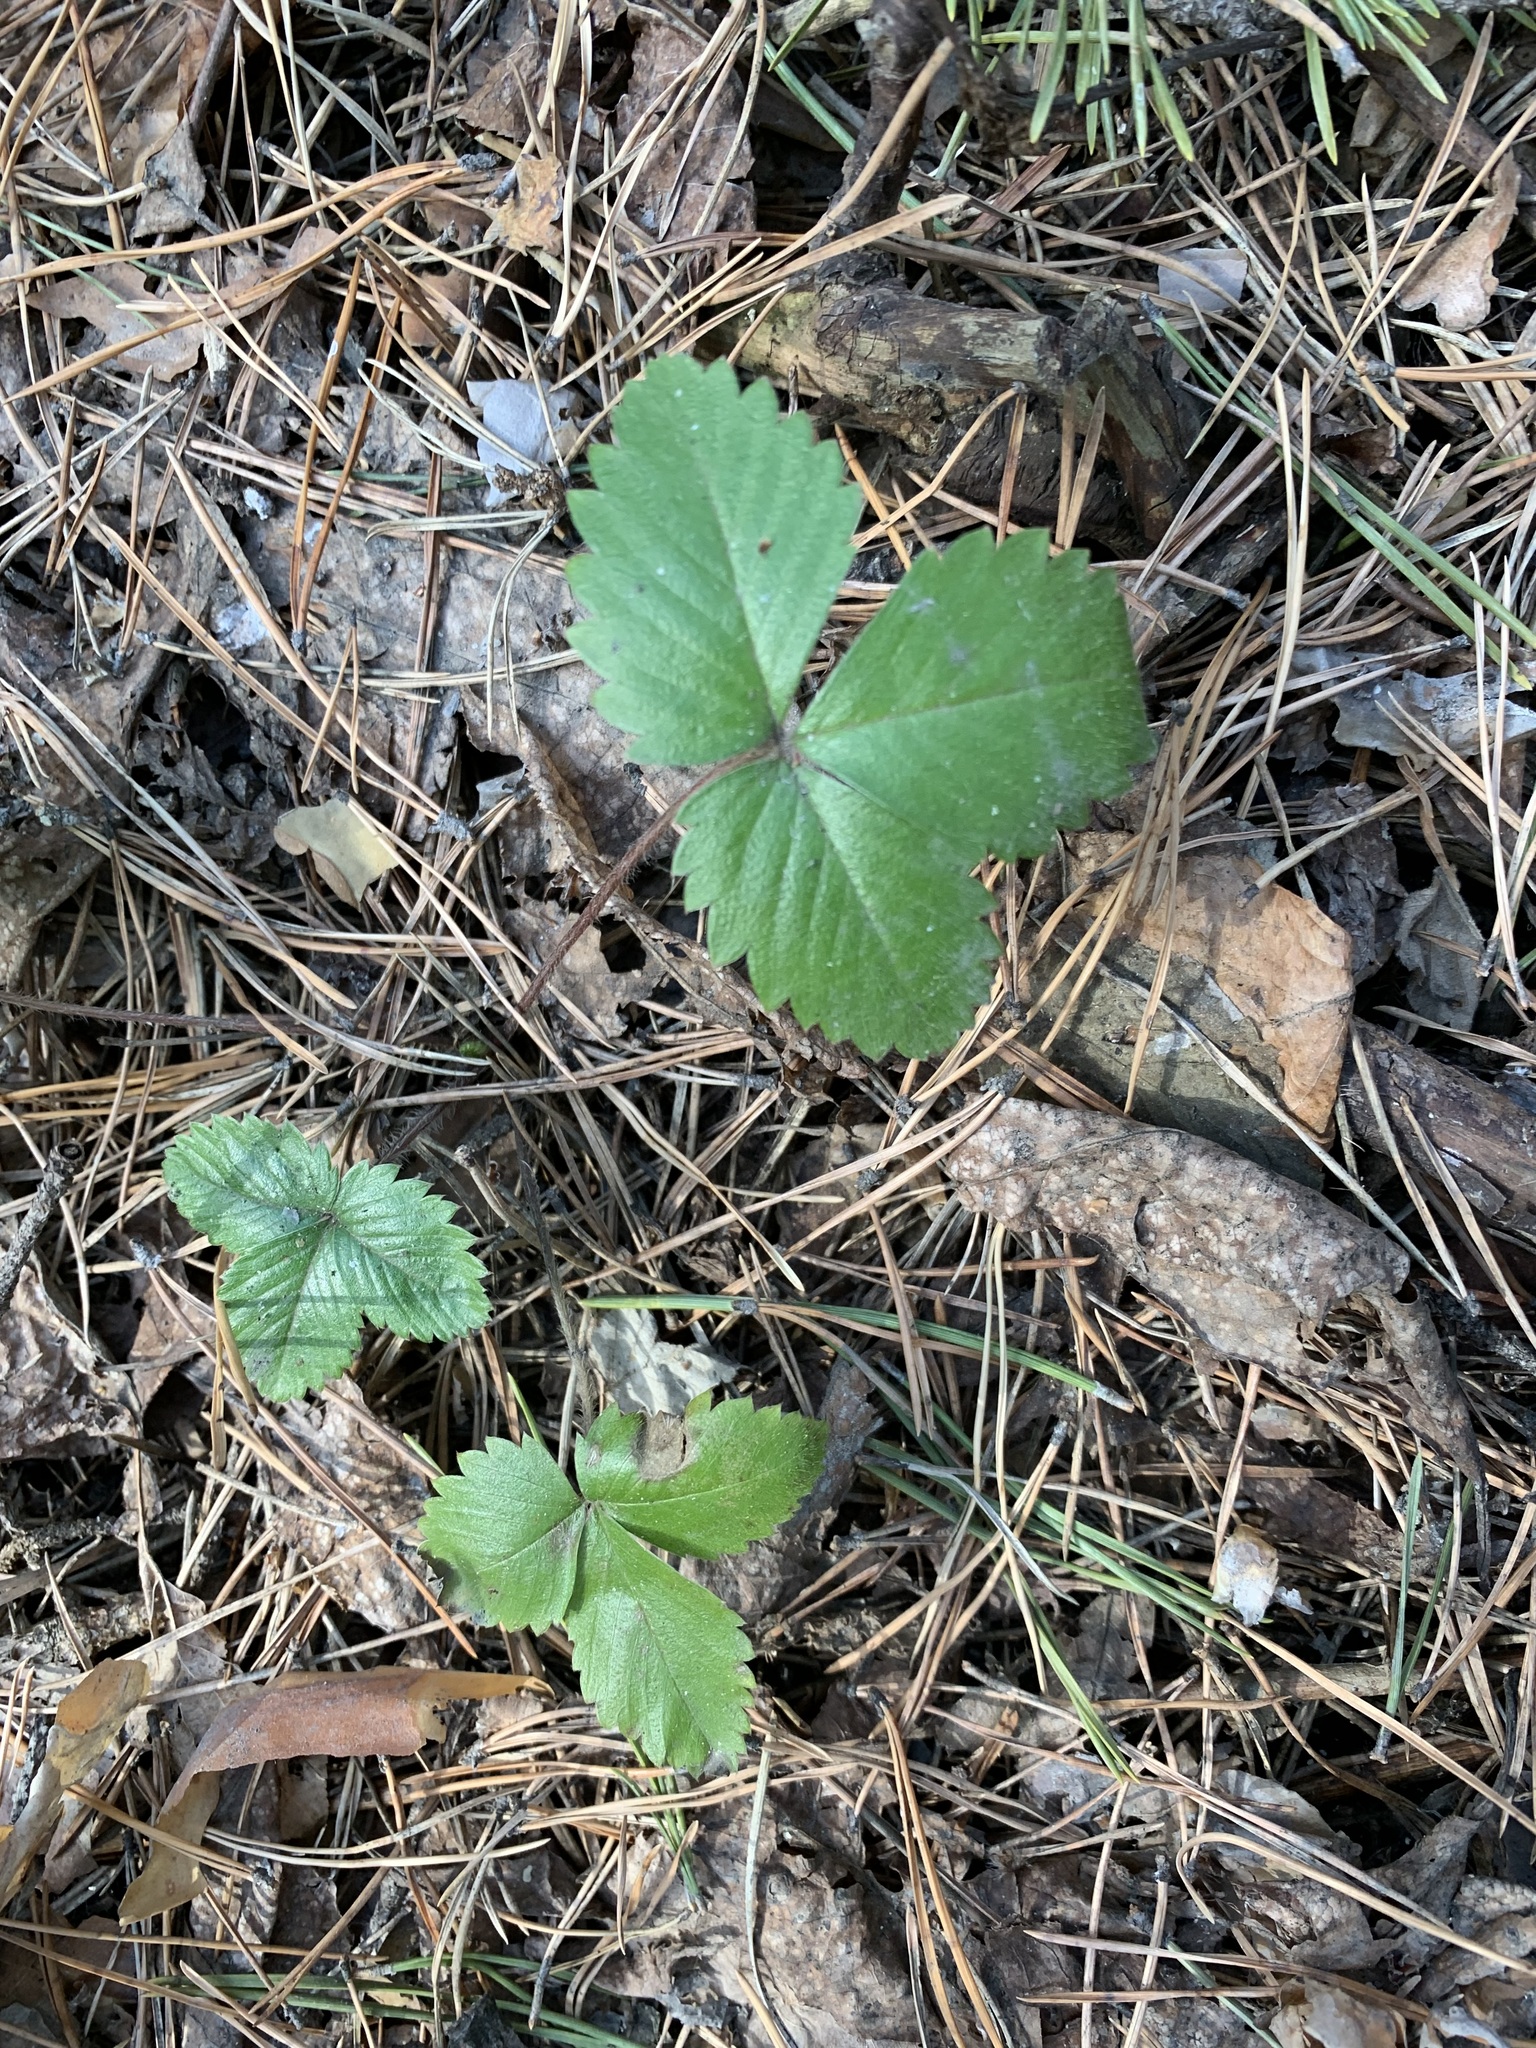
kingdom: Plantae
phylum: Tracheophyta
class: Magnoliopsida
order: Rosales
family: Rosaceae
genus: Fragaria
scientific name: Fragaria vesca
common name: Wild strawberry
